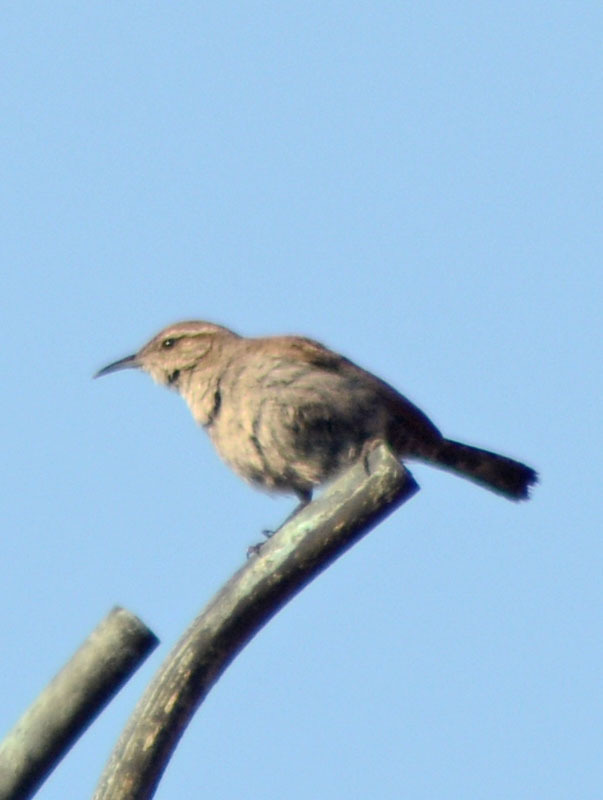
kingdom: Animalia
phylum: Chordata
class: Aves
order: Passeriformes
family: Troglodytidae
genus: Thryomanes
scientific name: Thryomanes bewickii
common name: Bewick's wren
